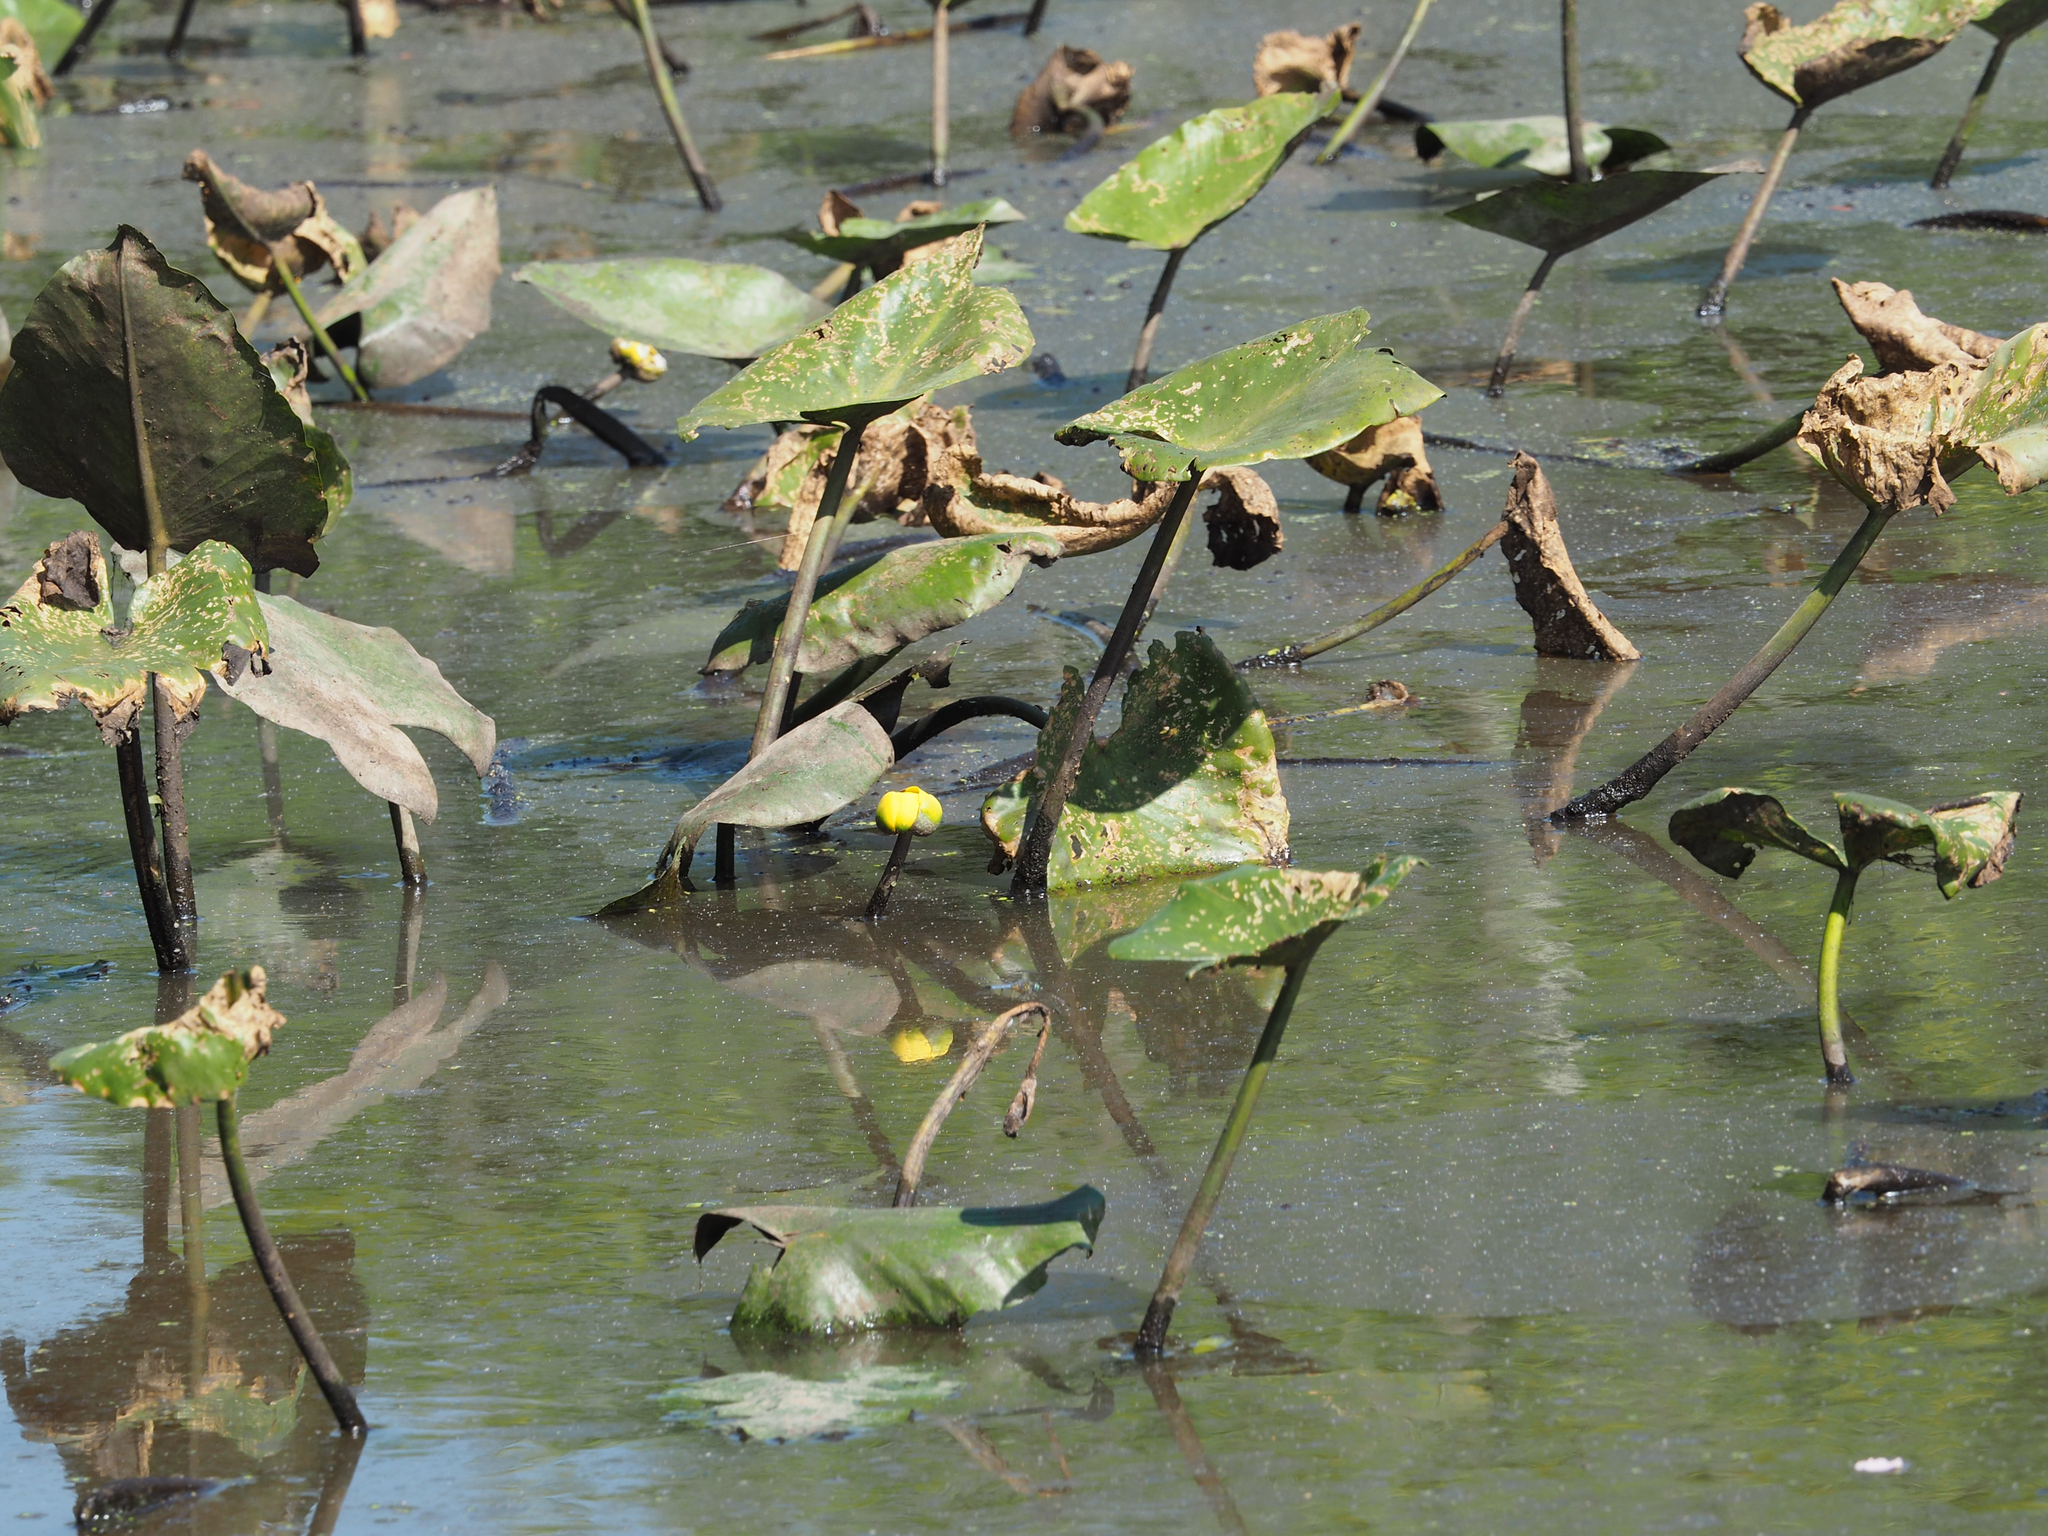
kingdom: Plantae
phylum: Tracheophyta
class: Magnoliopsida
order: Nymphaeales
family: Nymphaeaceae
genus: Nuphar
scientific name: Nuphar advena
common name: Spatter-dock
